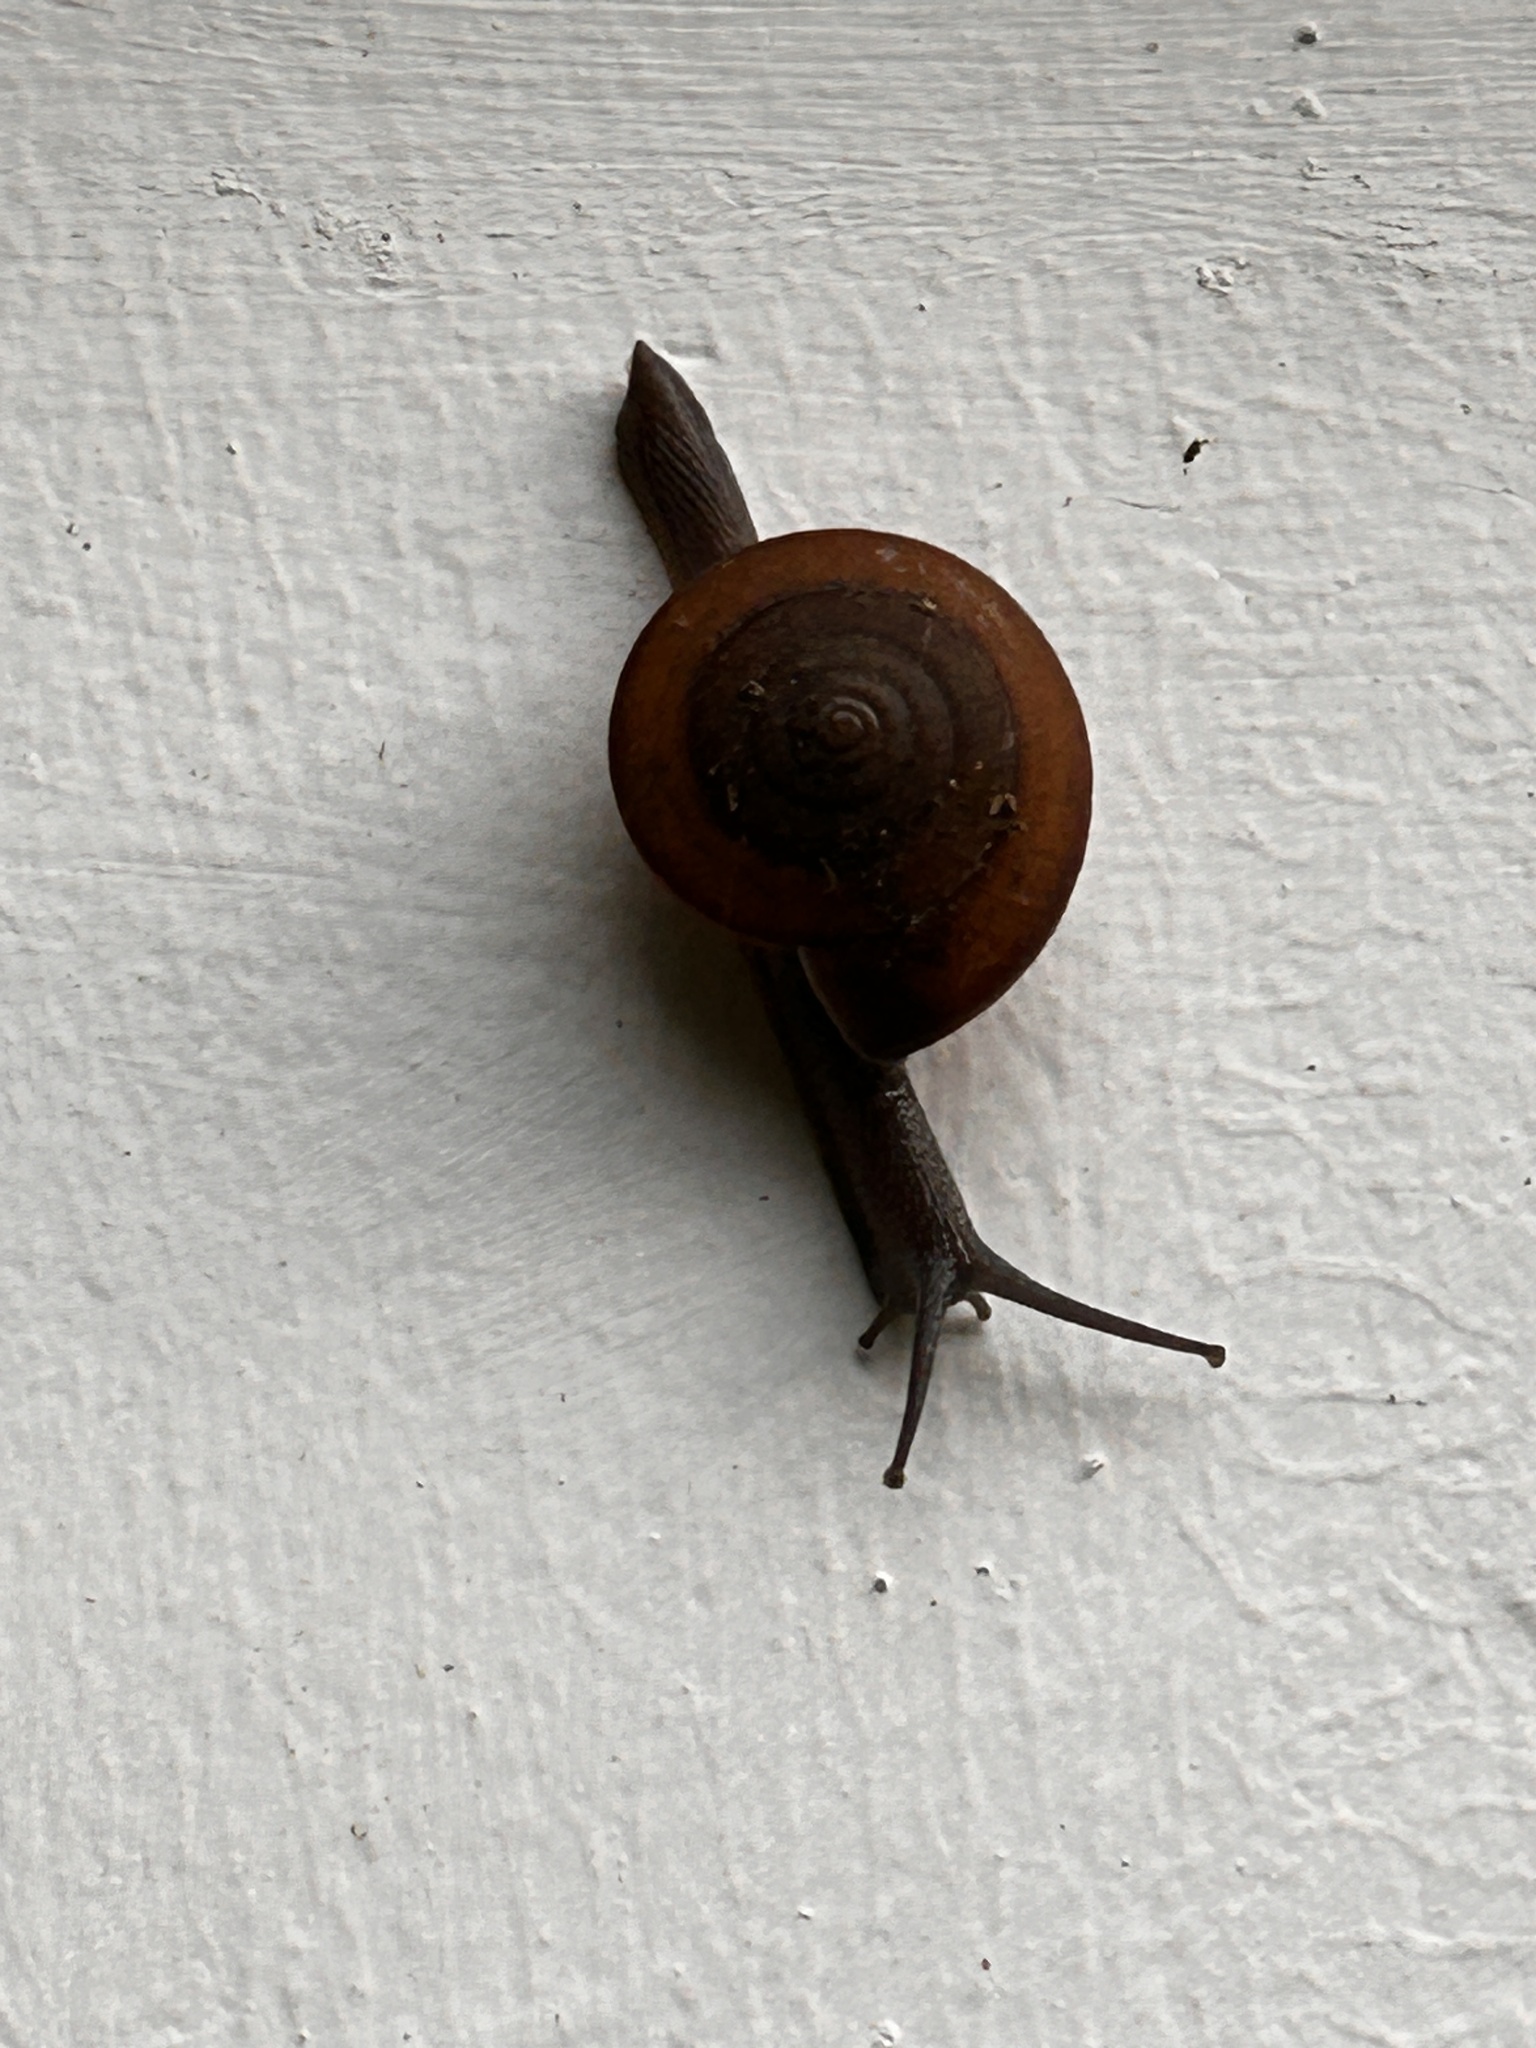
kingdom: Animalia
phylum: Mollusca
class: Gastropoda
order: Stylommatophora
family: Ariophantidae
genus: Sarika
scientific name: Sarika siamensis
